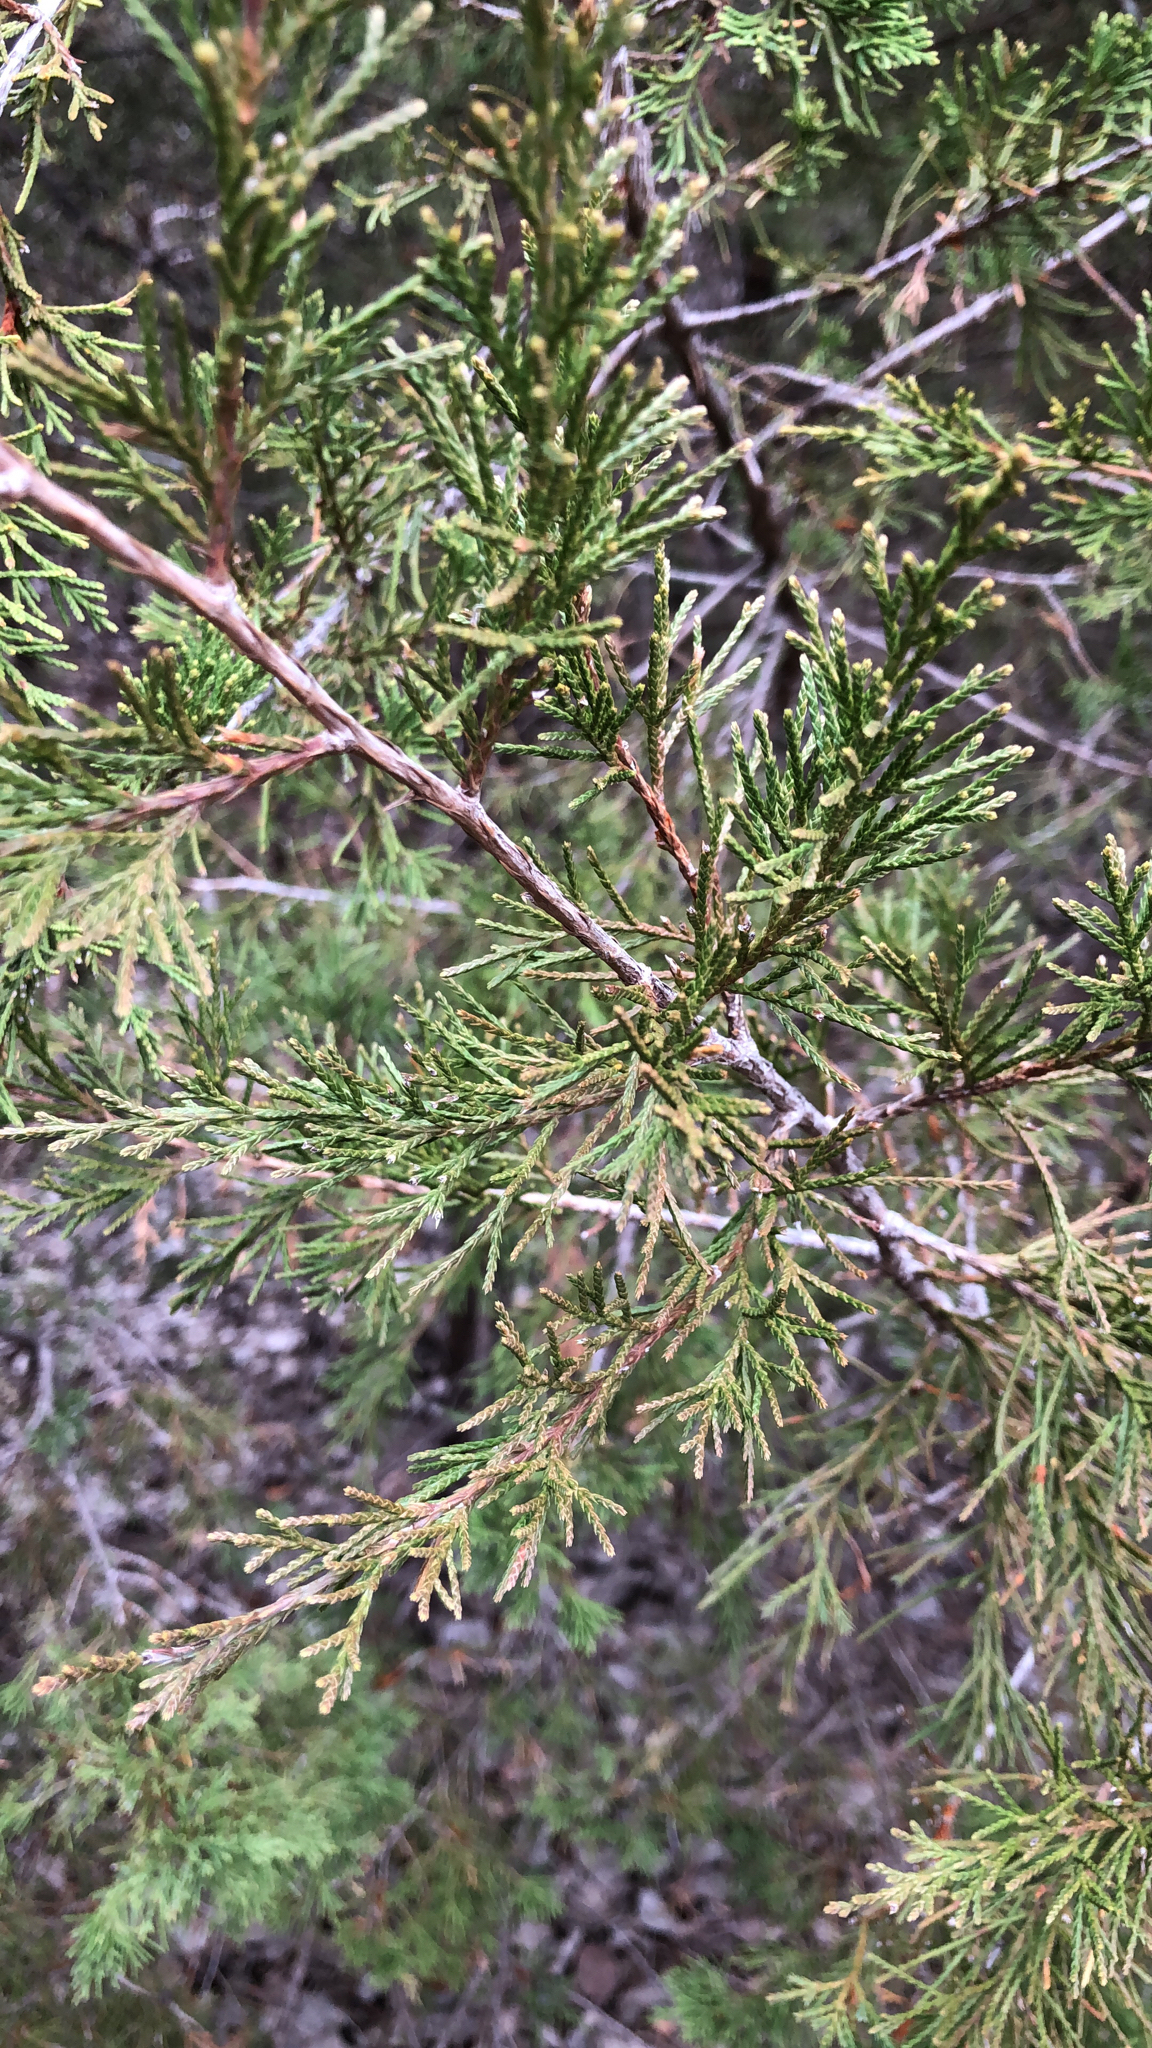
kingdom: Plantae
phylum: Tracheophyta
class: Pinopsida
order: Pinales
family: Cupressaceae
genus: Juniperus
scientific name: Juniperus virginiana
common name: Red juniper
